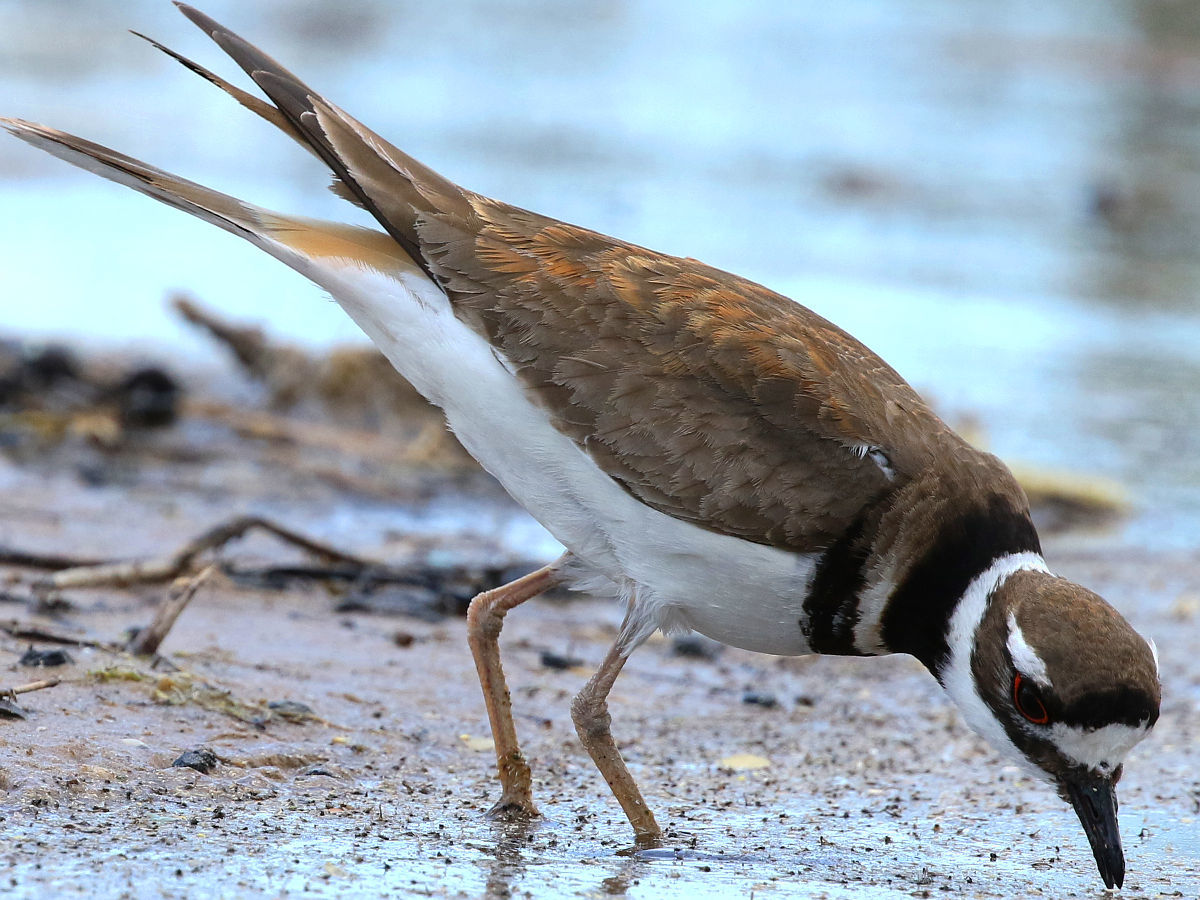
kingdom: Animalia
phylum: Chordata
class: Aves
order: Charadriiformes
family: Charadriidae
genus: Charadrius
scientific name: Charadrius vociferus
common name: Killdeer
